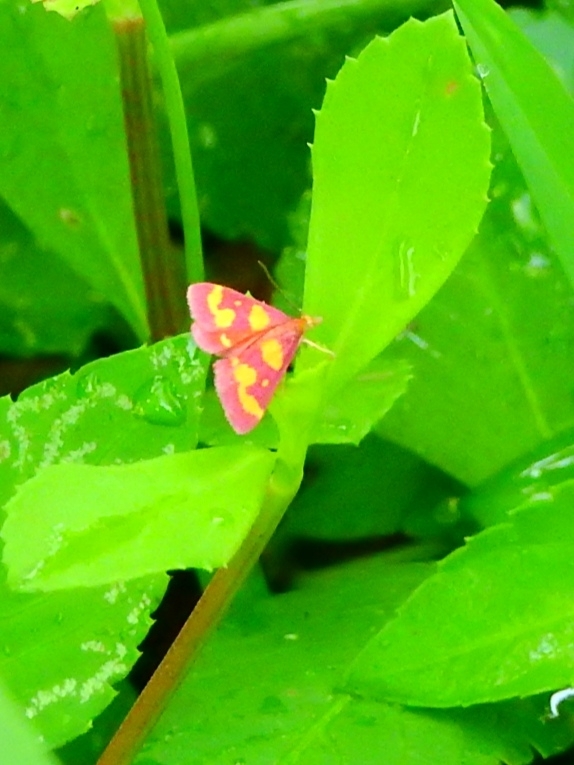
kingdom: Animalia
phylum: Arthropoda
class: Insecta
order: Lepidoptera
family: Crambidae
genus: Pyrausta
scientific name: Pyrausta tyralis
